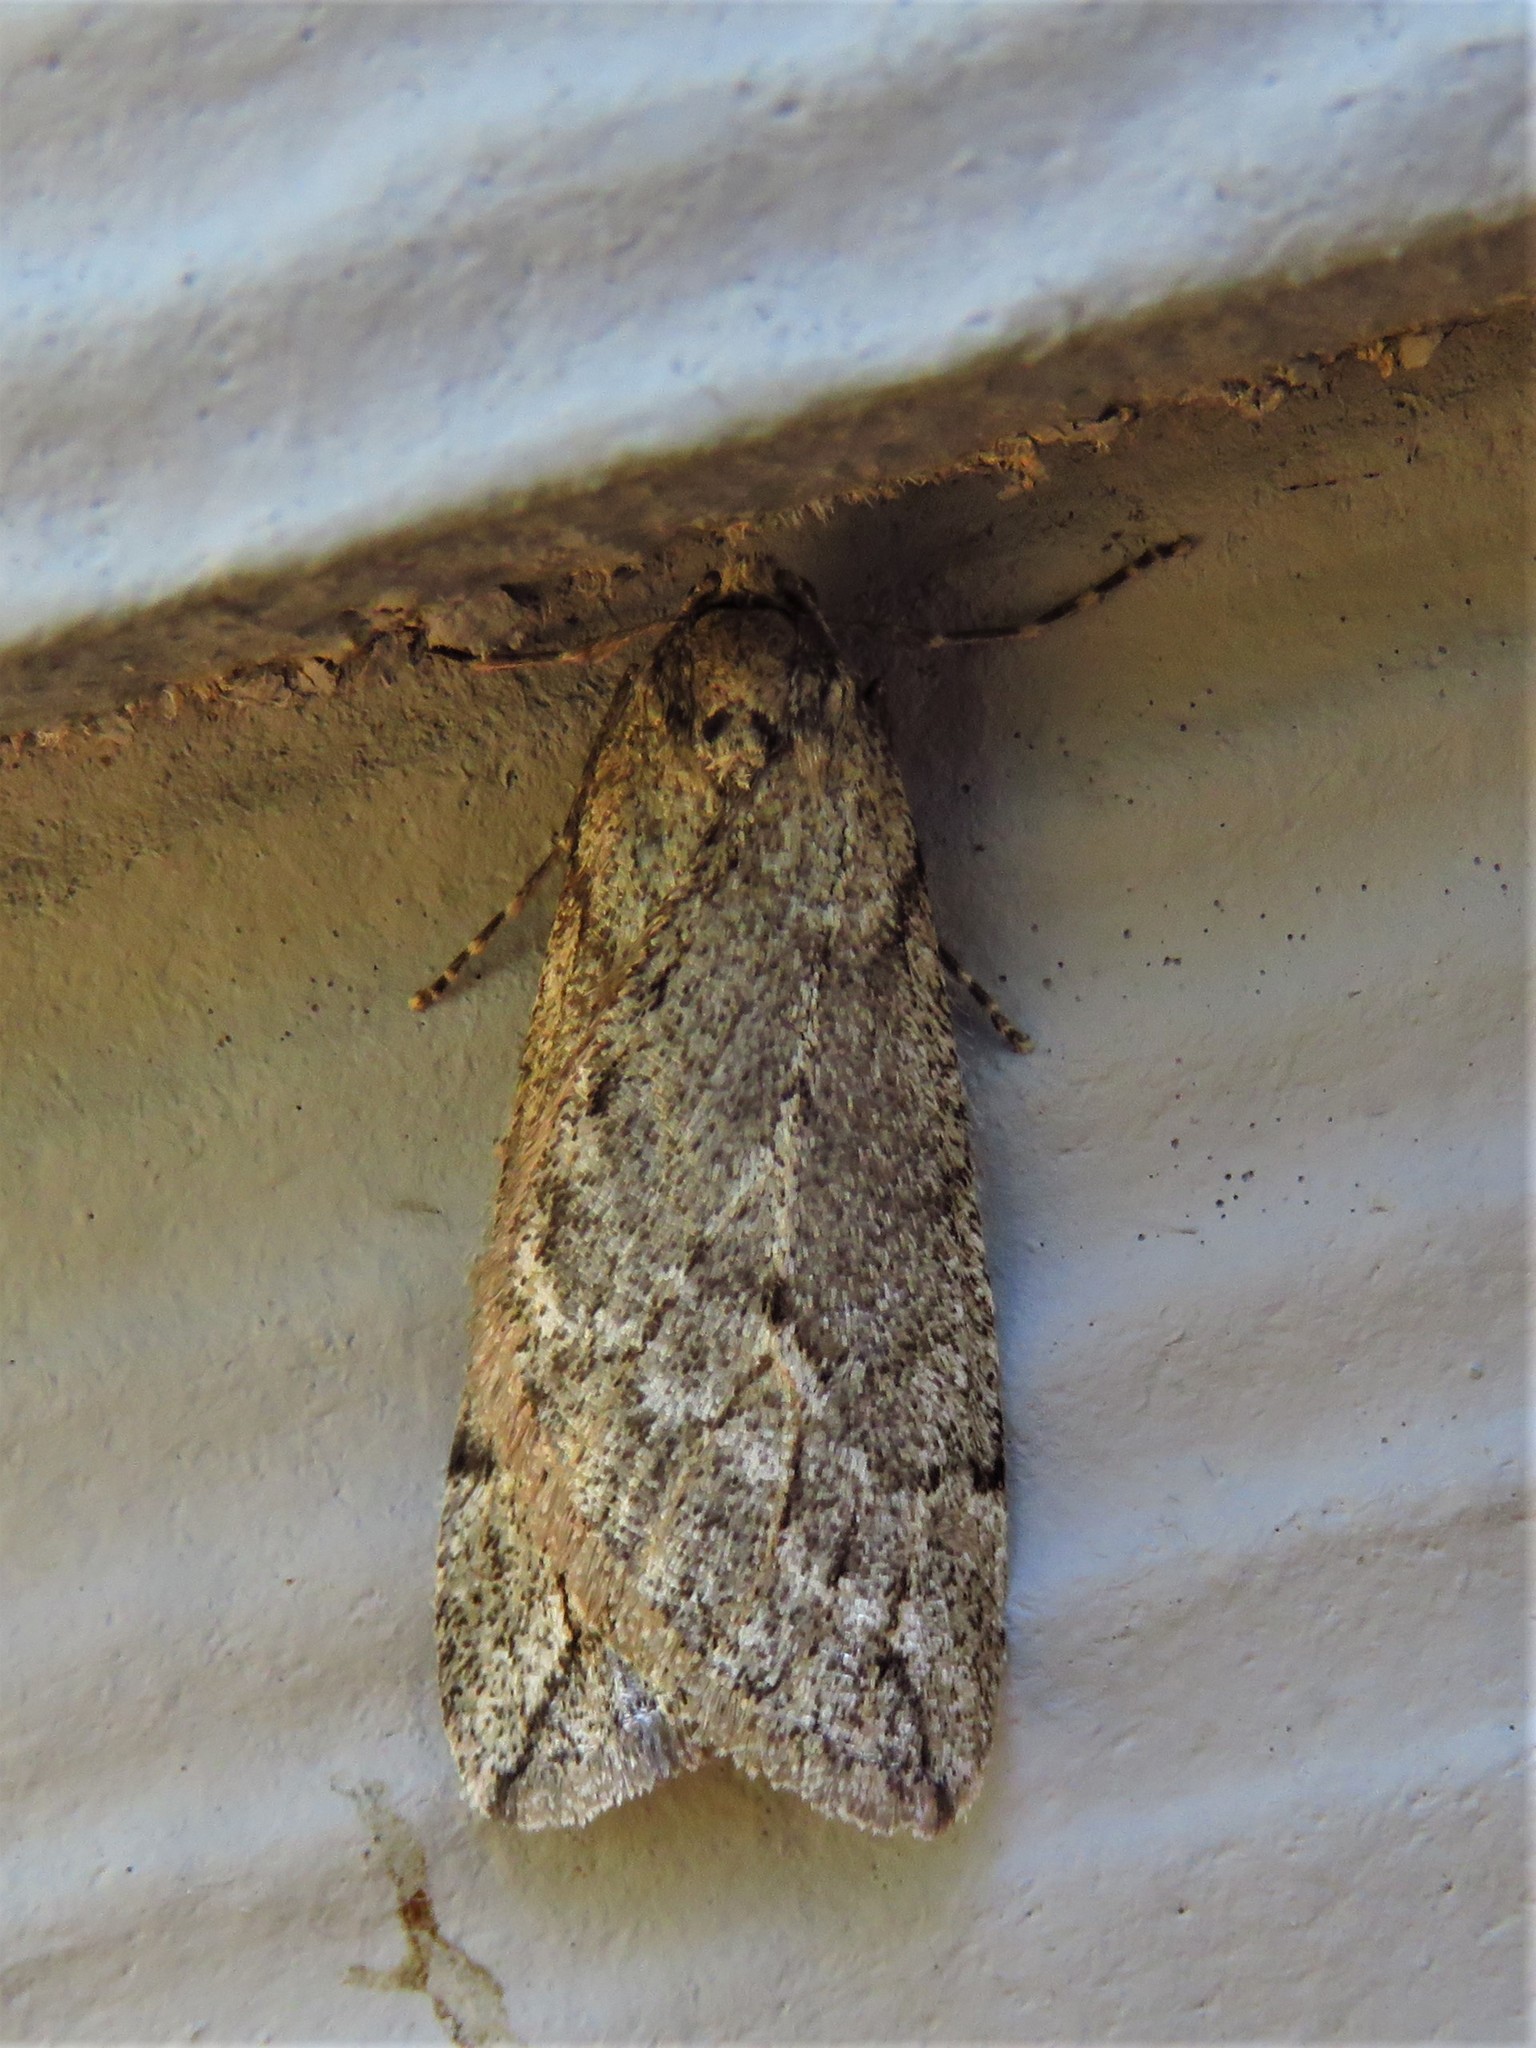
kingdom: Animalia
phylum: Arthropoda
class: Insecta
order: Lepidoptera
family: Geometridae
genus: Paleacrita
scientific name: Paleacrita vernata
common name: Spring cankerworm
